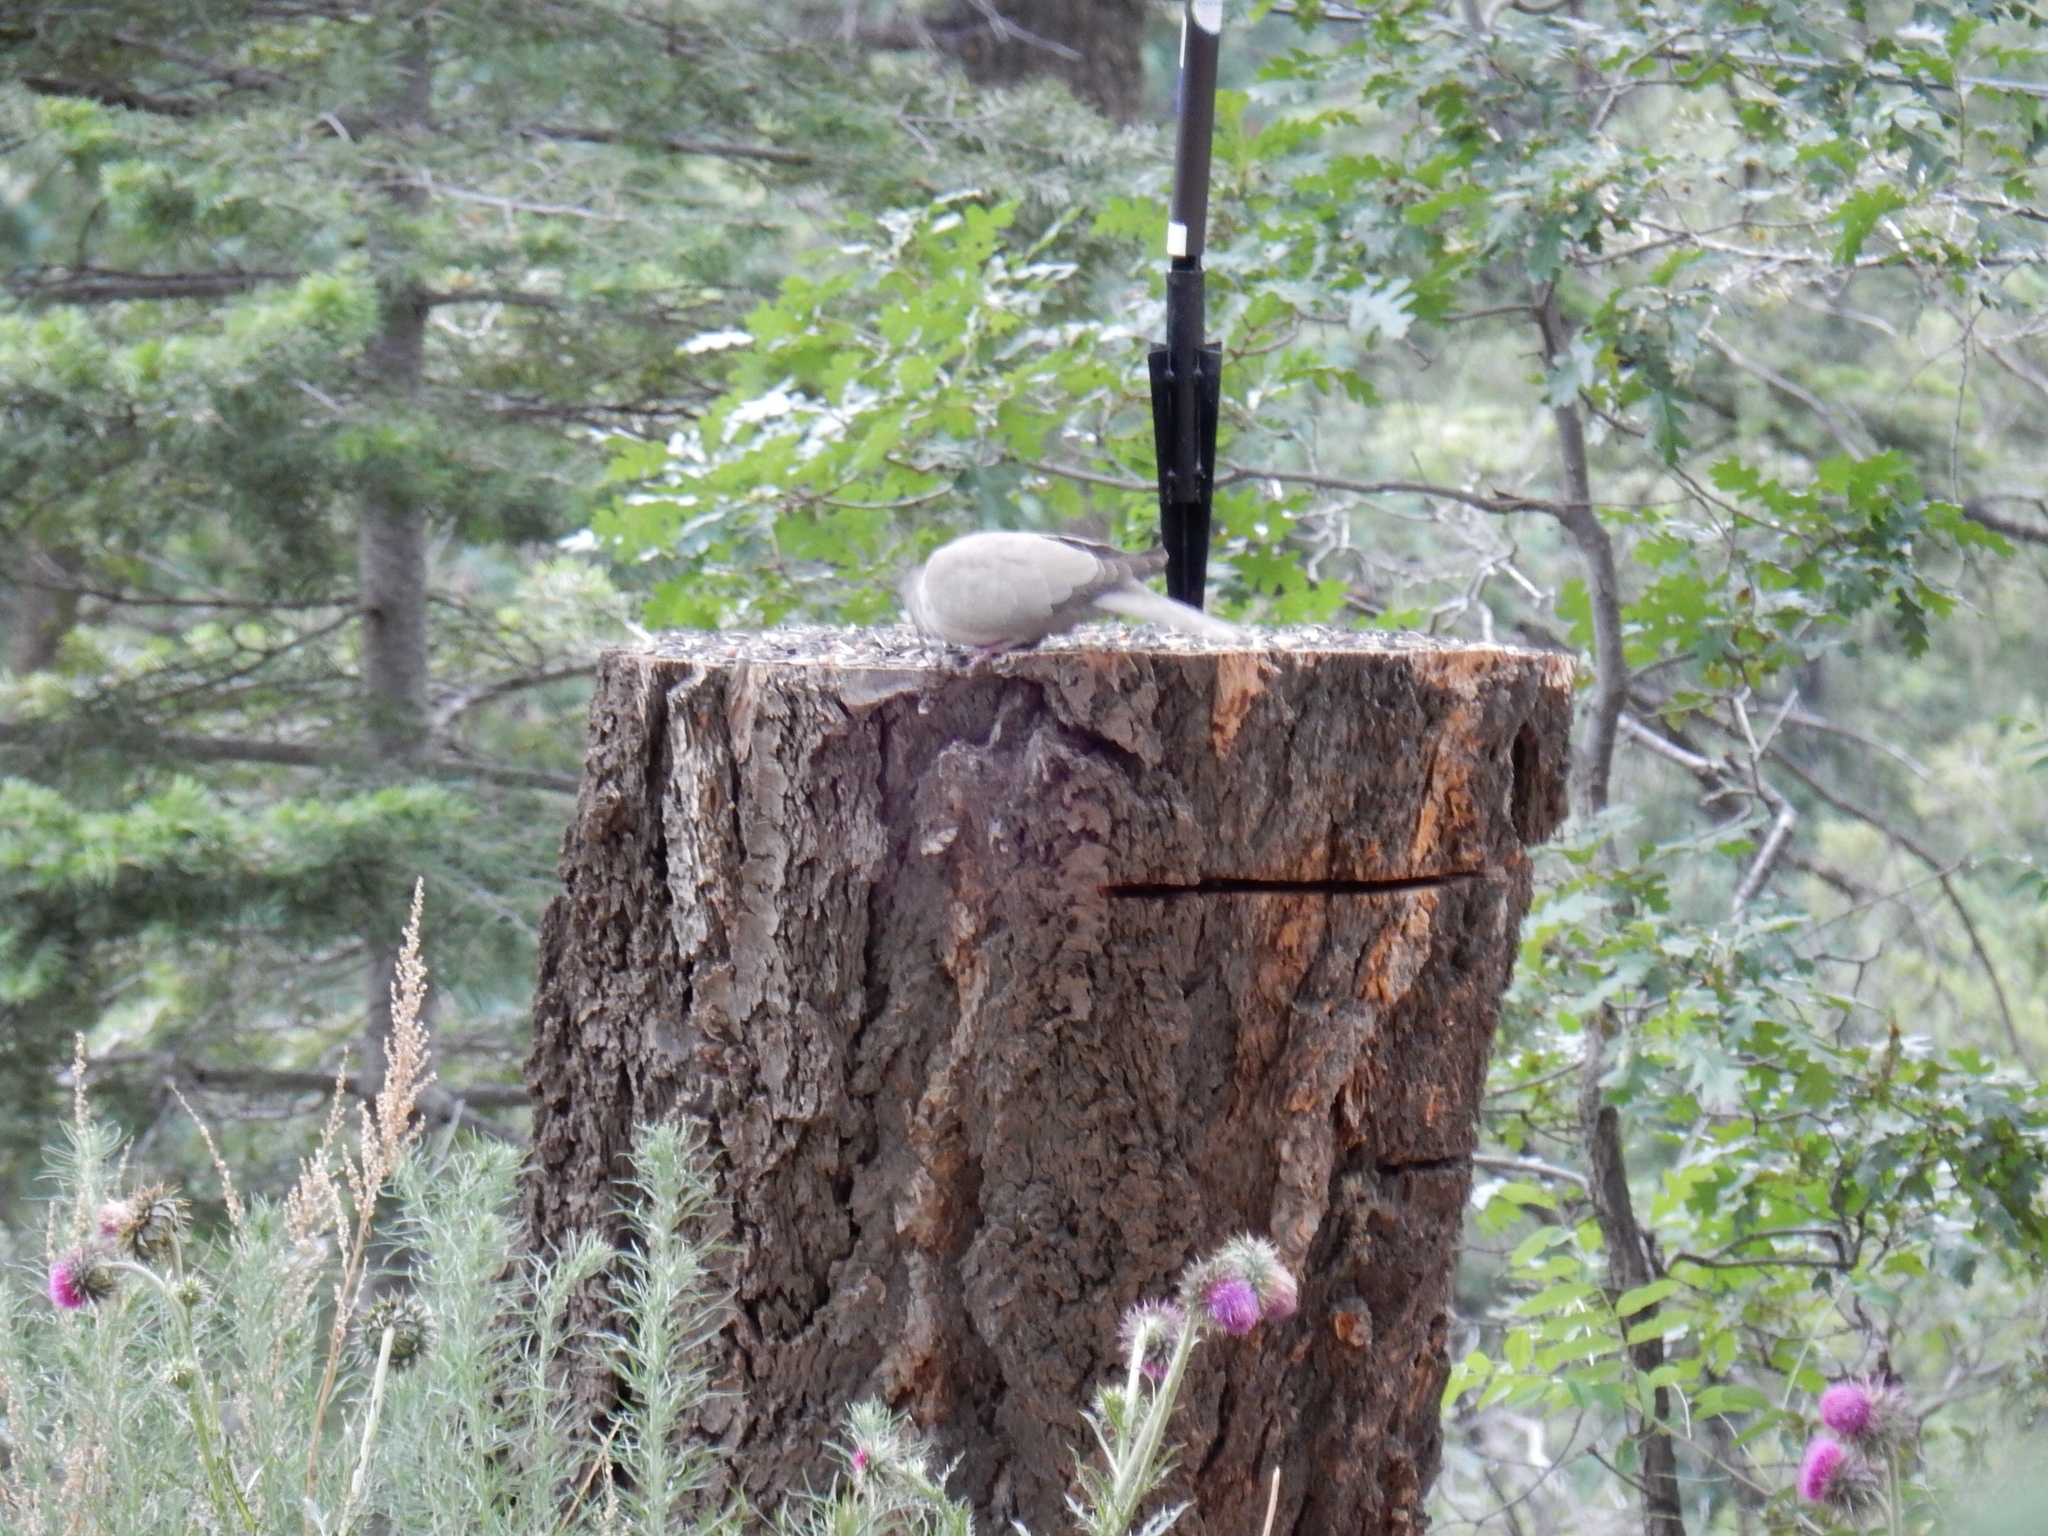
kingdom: Animalia
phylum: Chordata
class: Aves
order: Columbiformes
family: Columbidae
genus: Streptopelia
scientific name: Streptopelia decaocto
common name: Eurasian collared dove
